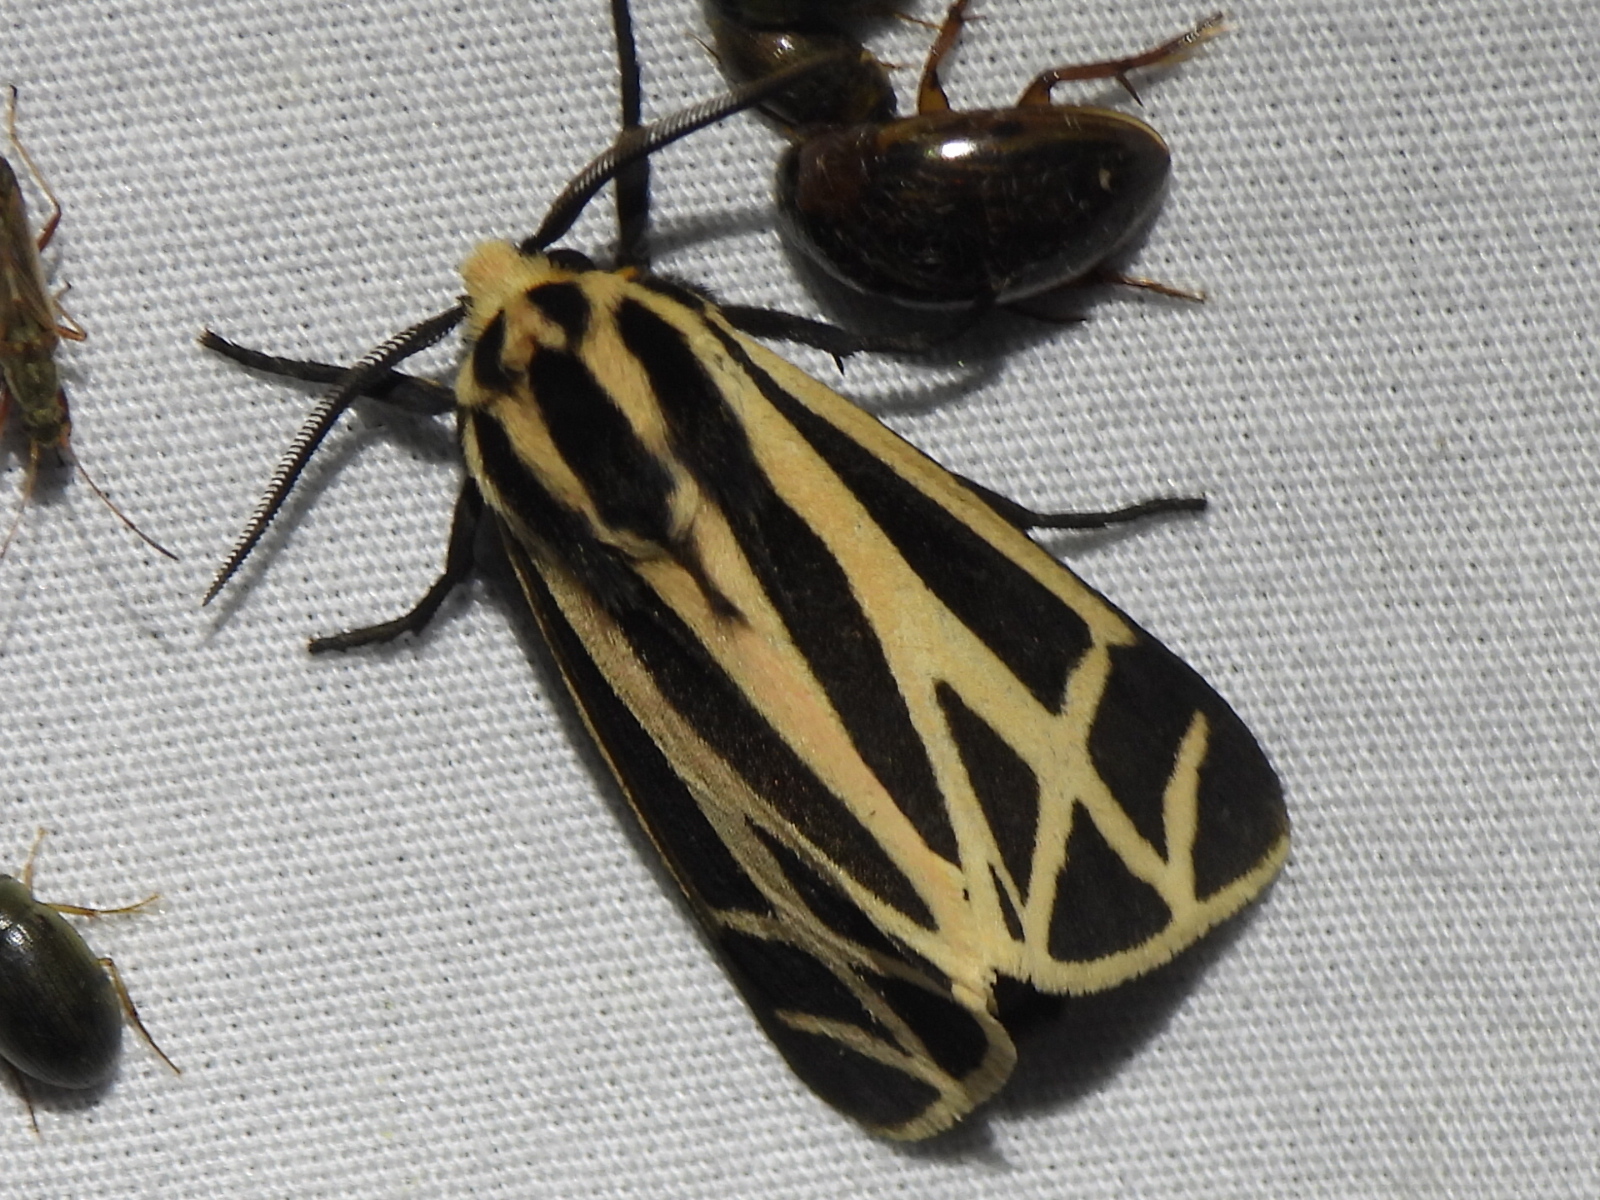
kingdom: Animalia
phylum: Arthropoda
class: Insecta
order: Lepidoptera
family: Erebidae
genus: Apantesis
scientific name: Apantesis phalerata
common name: Harnessed tiger moth
